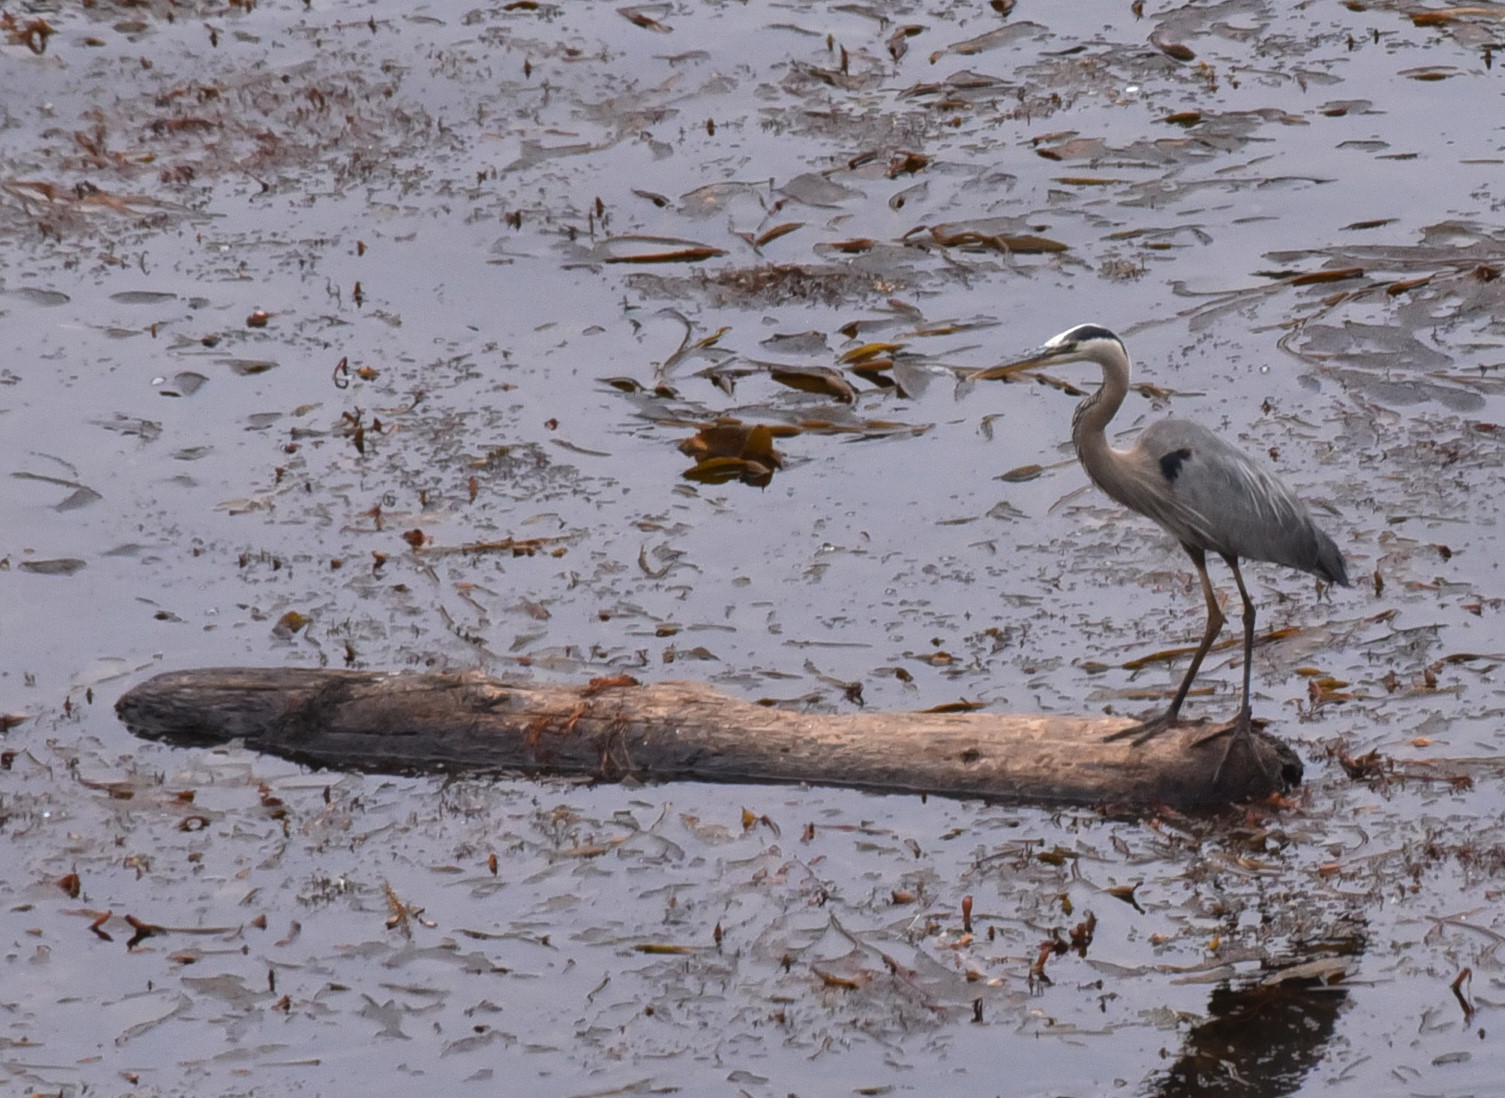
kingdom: Animalia
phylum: Chordata
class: Aves
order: Pelecaniformes
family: Ardeidae
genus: Ardea
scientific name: Ardea herodias
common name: Great blue heron
